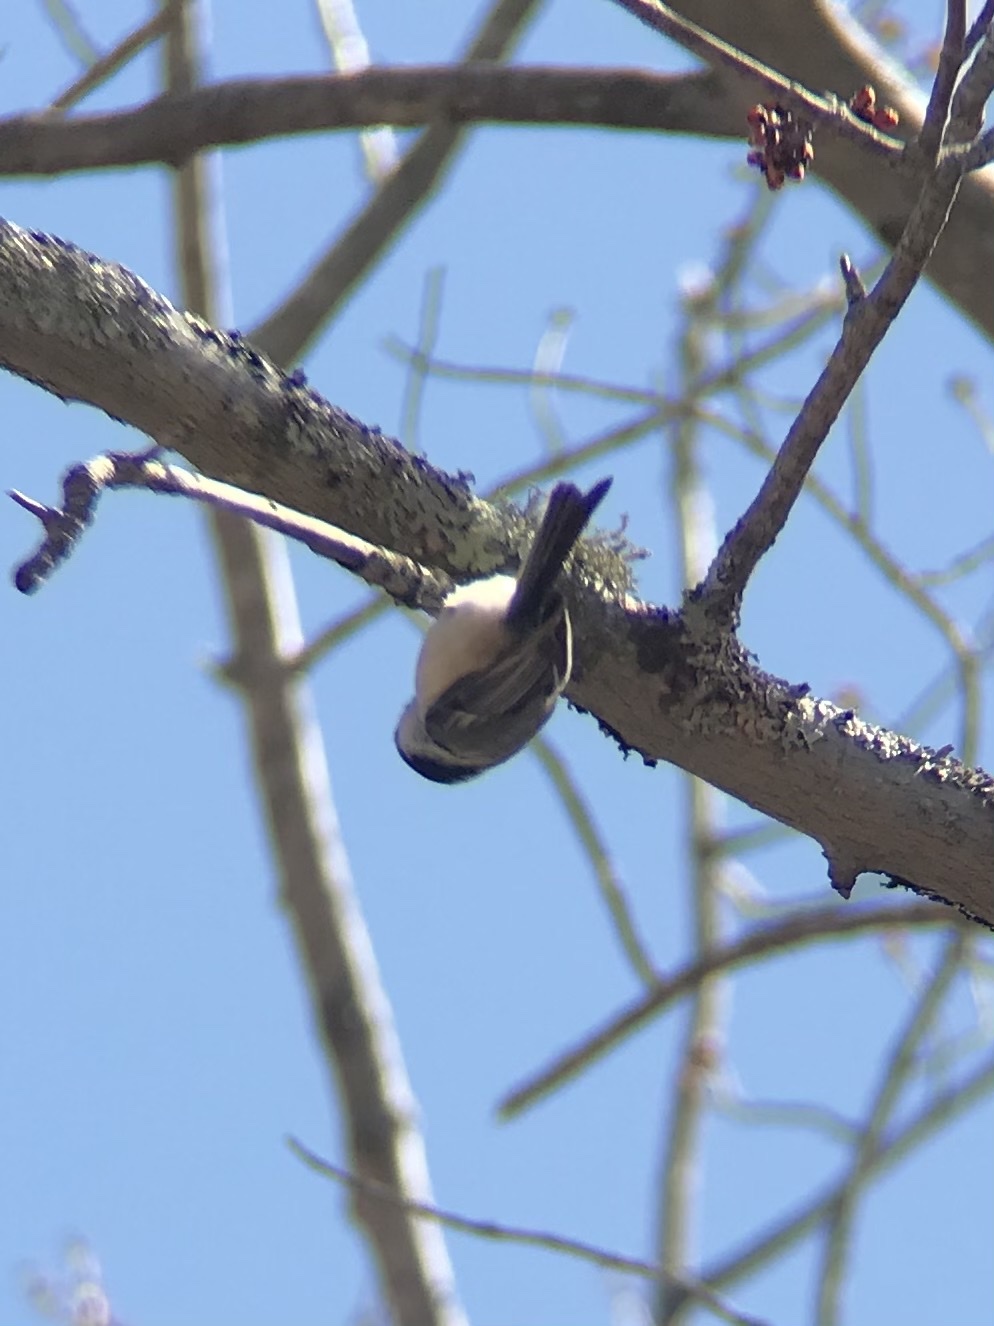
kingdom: Animalia
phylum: Chordata
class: Aves
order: Passeriformes
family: Paridae
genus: Poecile
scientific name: Poecile atricapillus
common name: Black-capped chickadee
